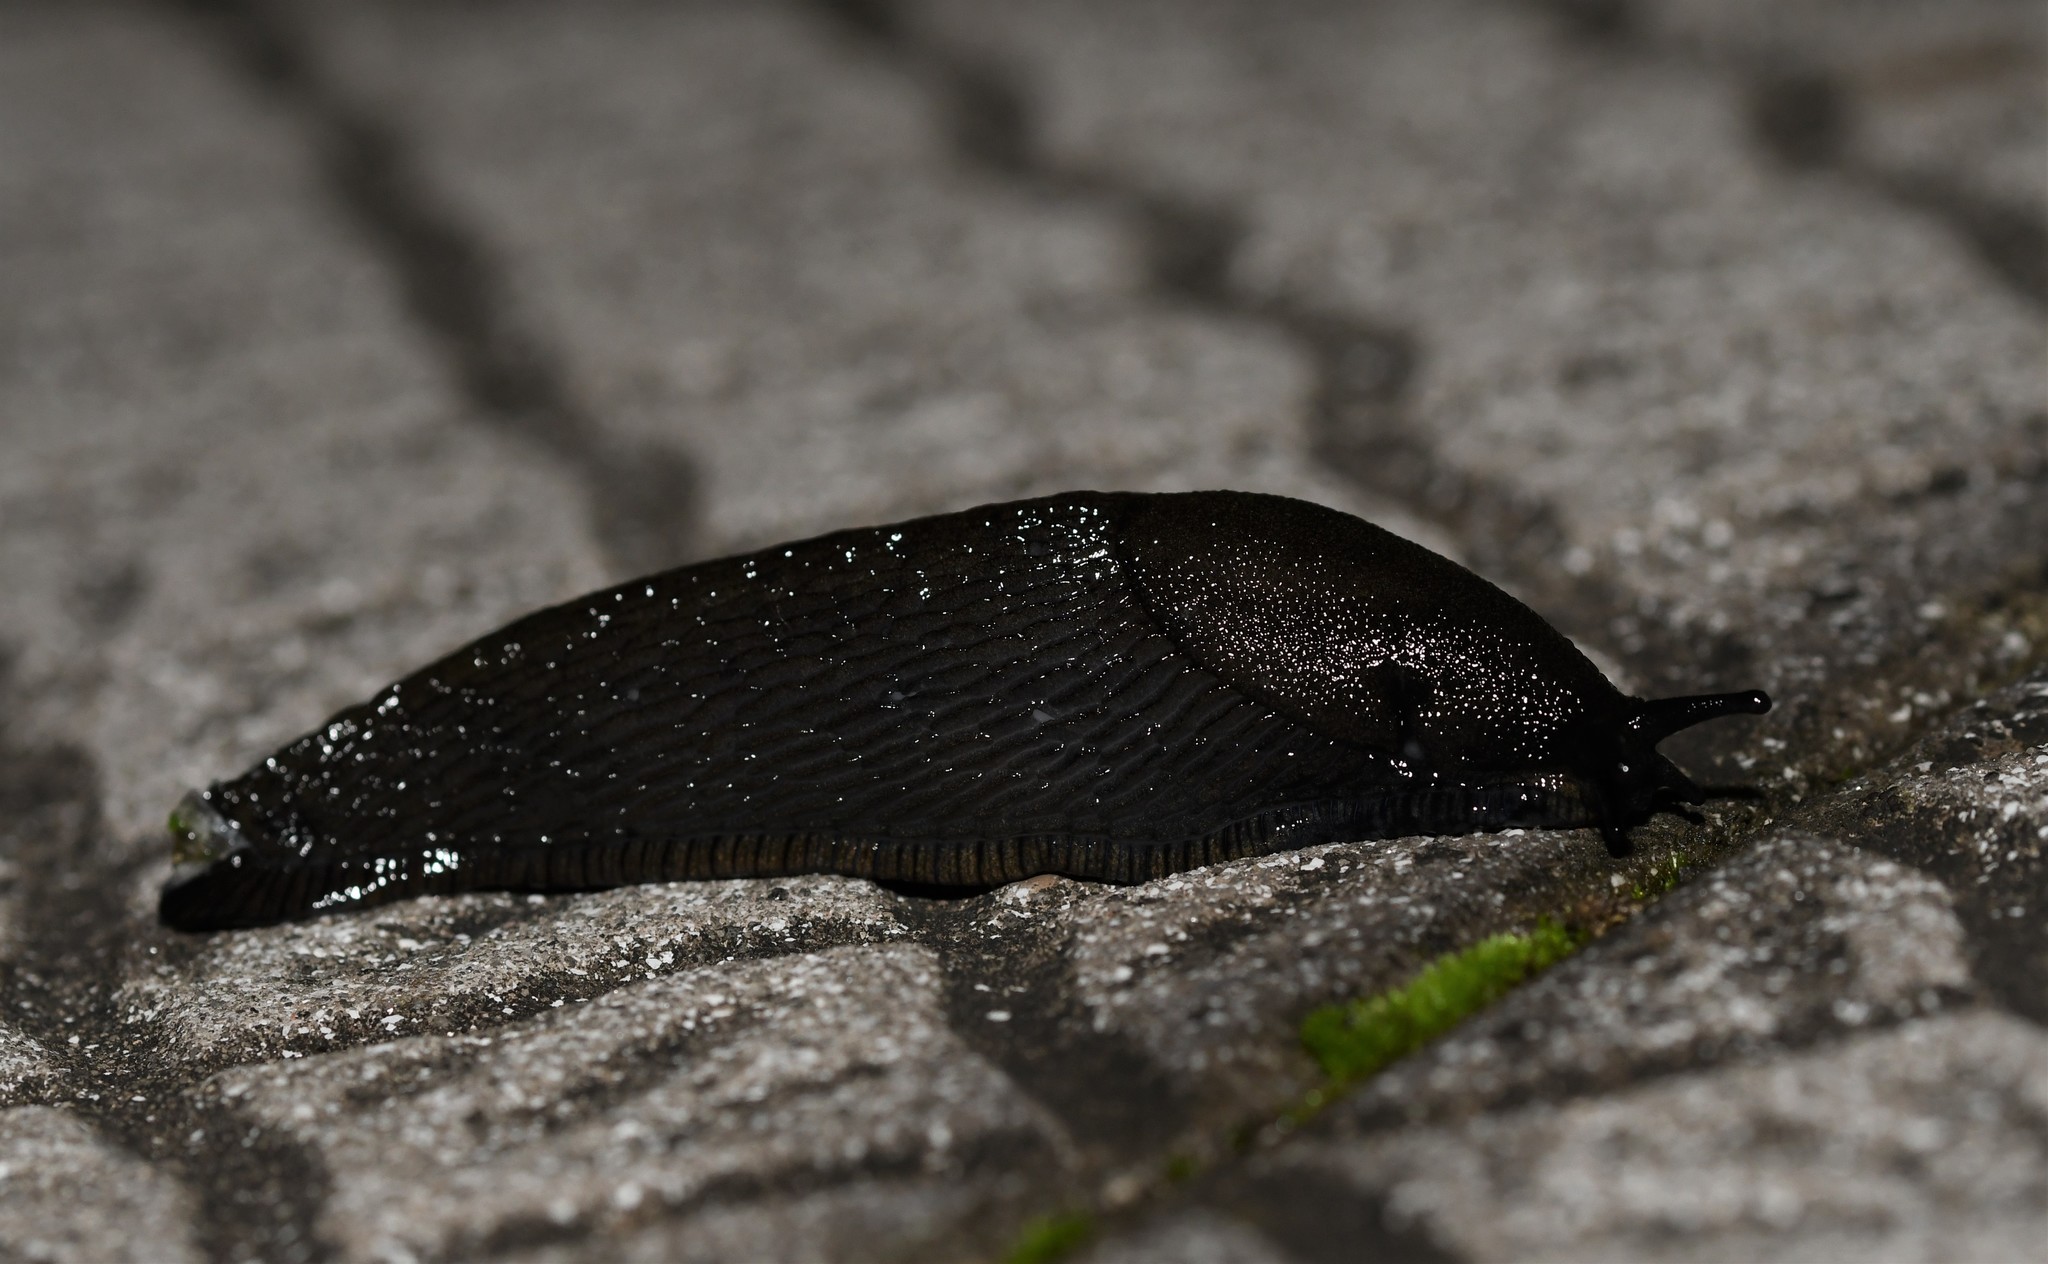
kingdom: Animalia
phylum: Mollusca
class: Gastropoda
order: Stylommatophora
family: Arionidae
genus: Arion
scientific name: Arion ater
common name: Black arion
